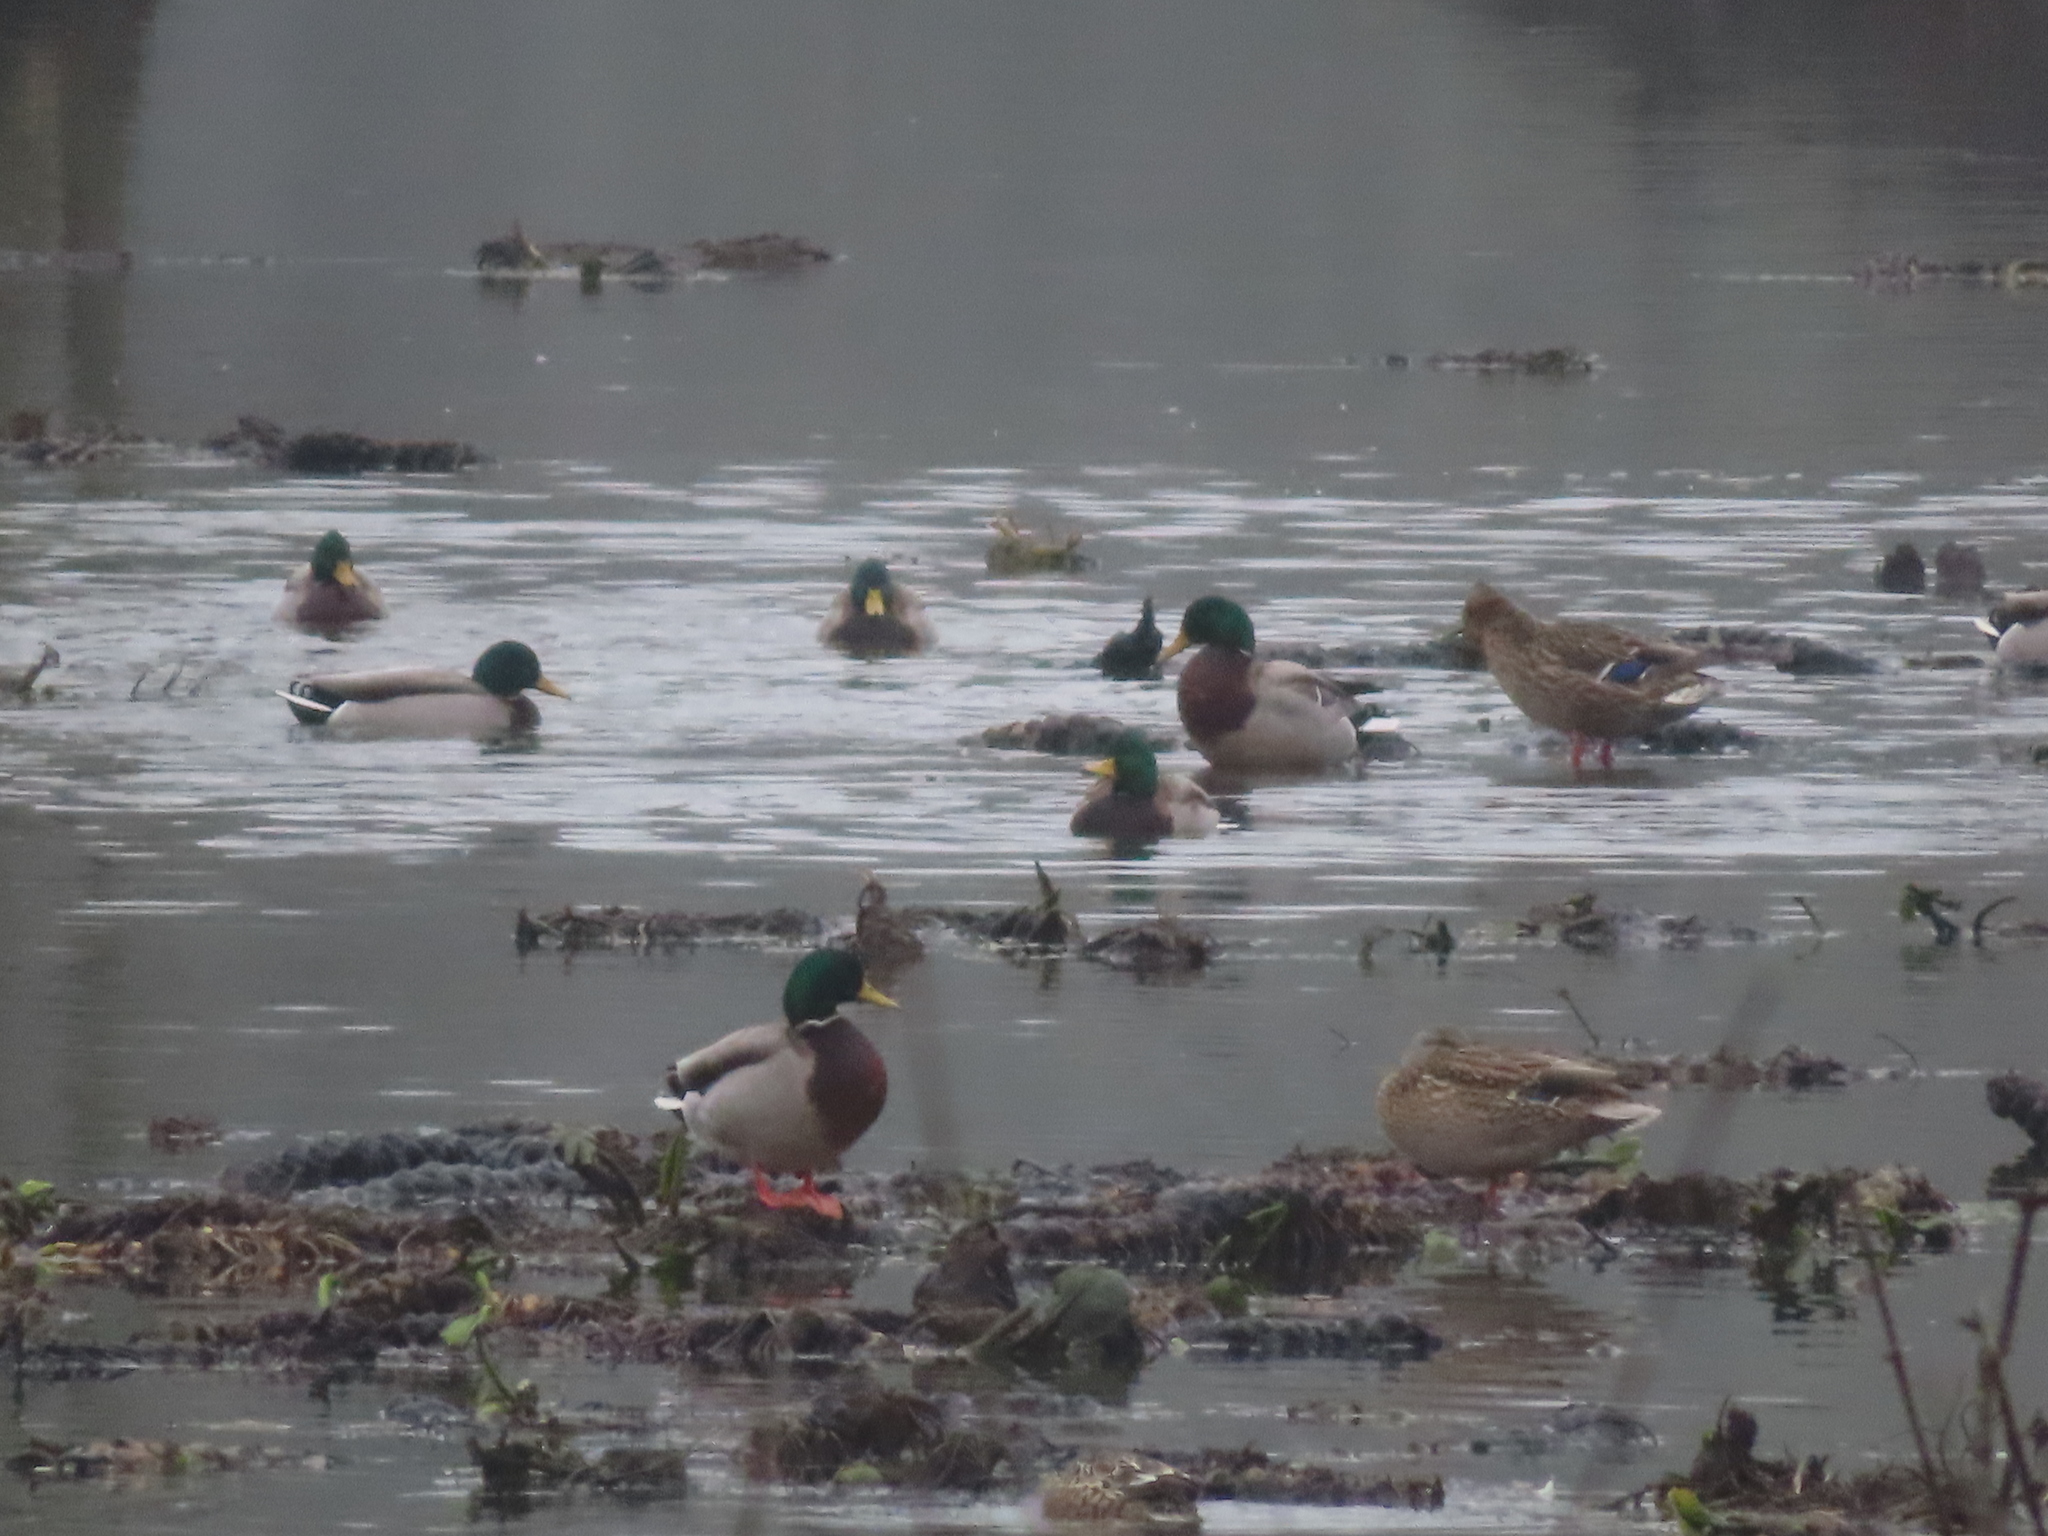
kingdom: Animalia
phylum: Chordata
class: Aves
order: Anseriformes
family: Anatidae
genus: Anas
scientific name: Anas platyrhynchos
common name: Mallard
